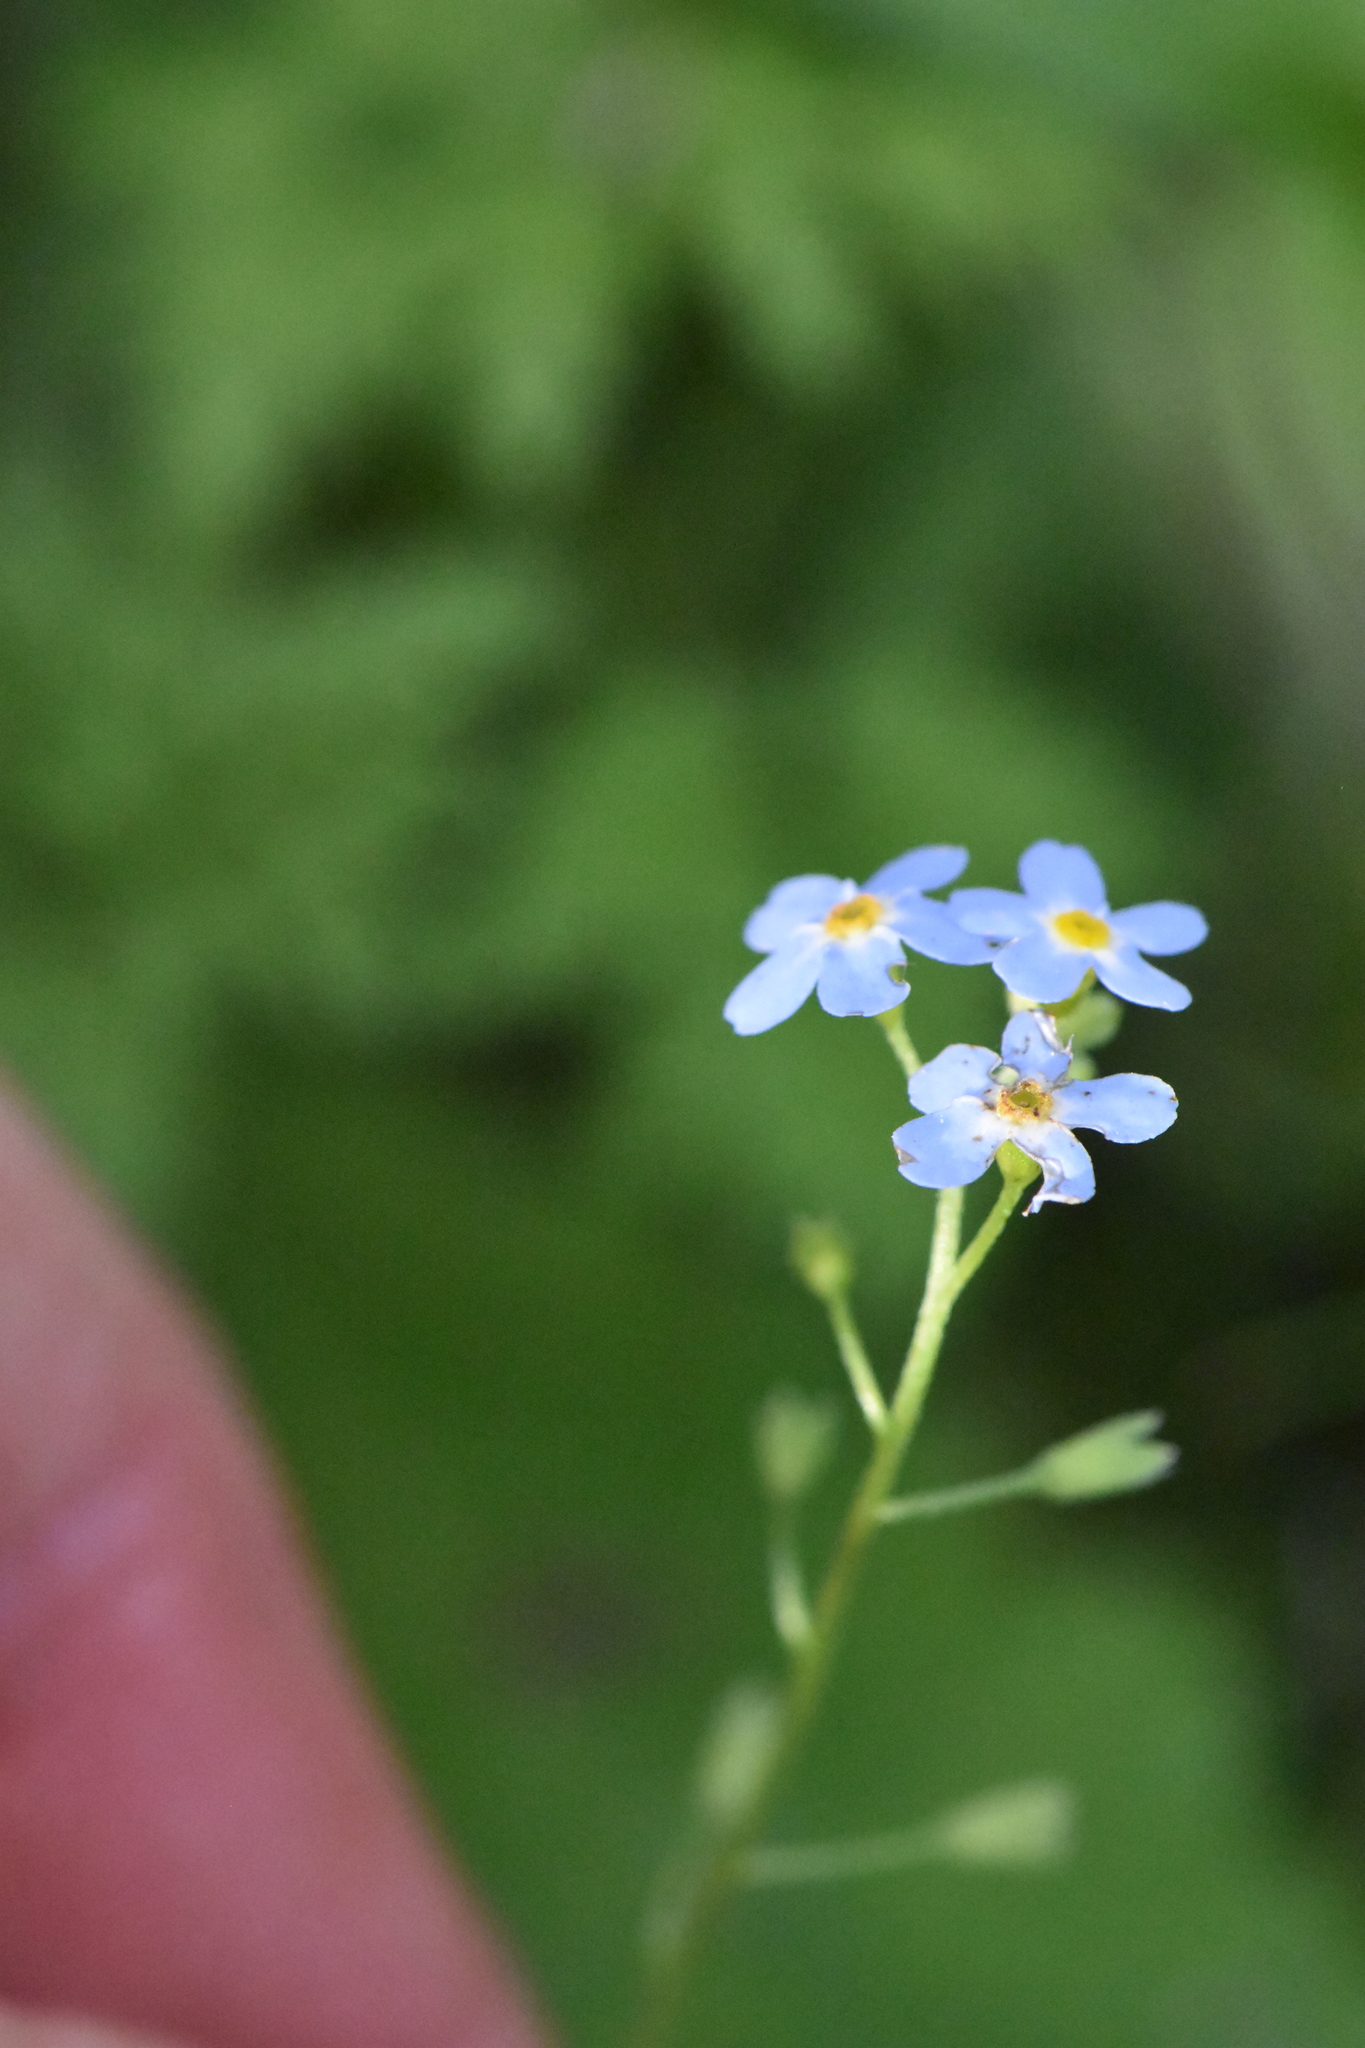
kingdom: Plantae
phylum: Tracheophyta
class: Magnoliopsida
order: Boraginales
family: Boraginaceae
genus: Myosotis
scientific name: Myosotis scorpioides
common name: Water forget-me-not
